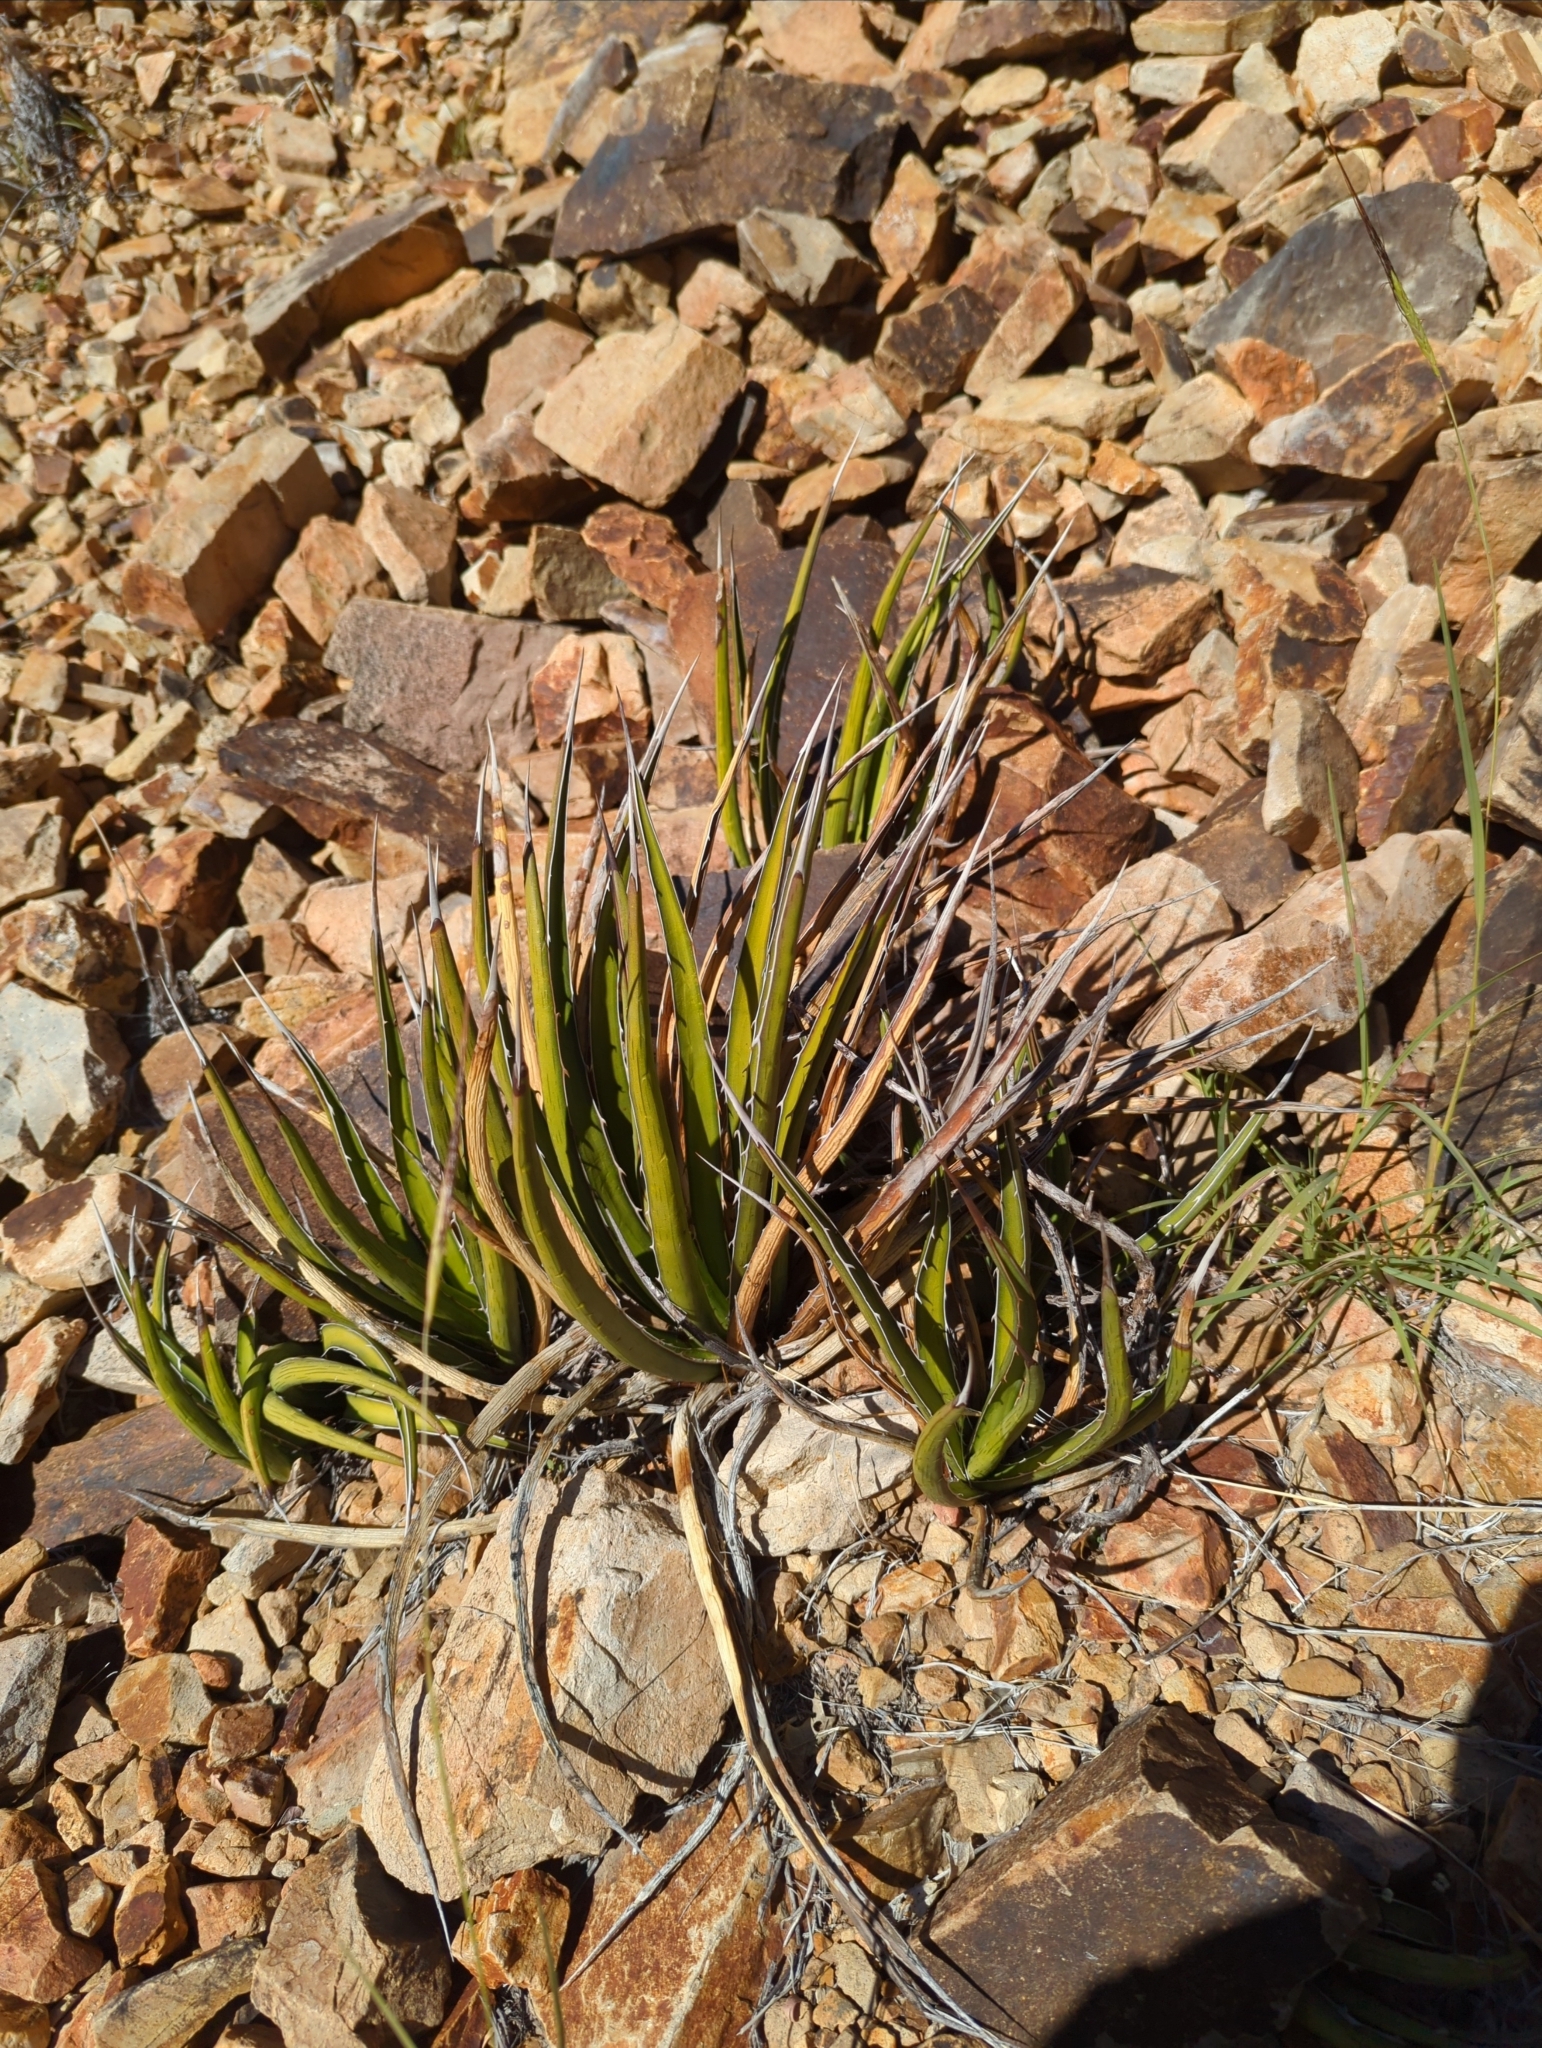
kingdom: Plantae
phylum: Tracheophyta
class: Liliopsida
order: Asparagales
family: Asparagaceae
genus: Agave
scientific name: Agave lechuguilla
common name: Lecheguilla agave
